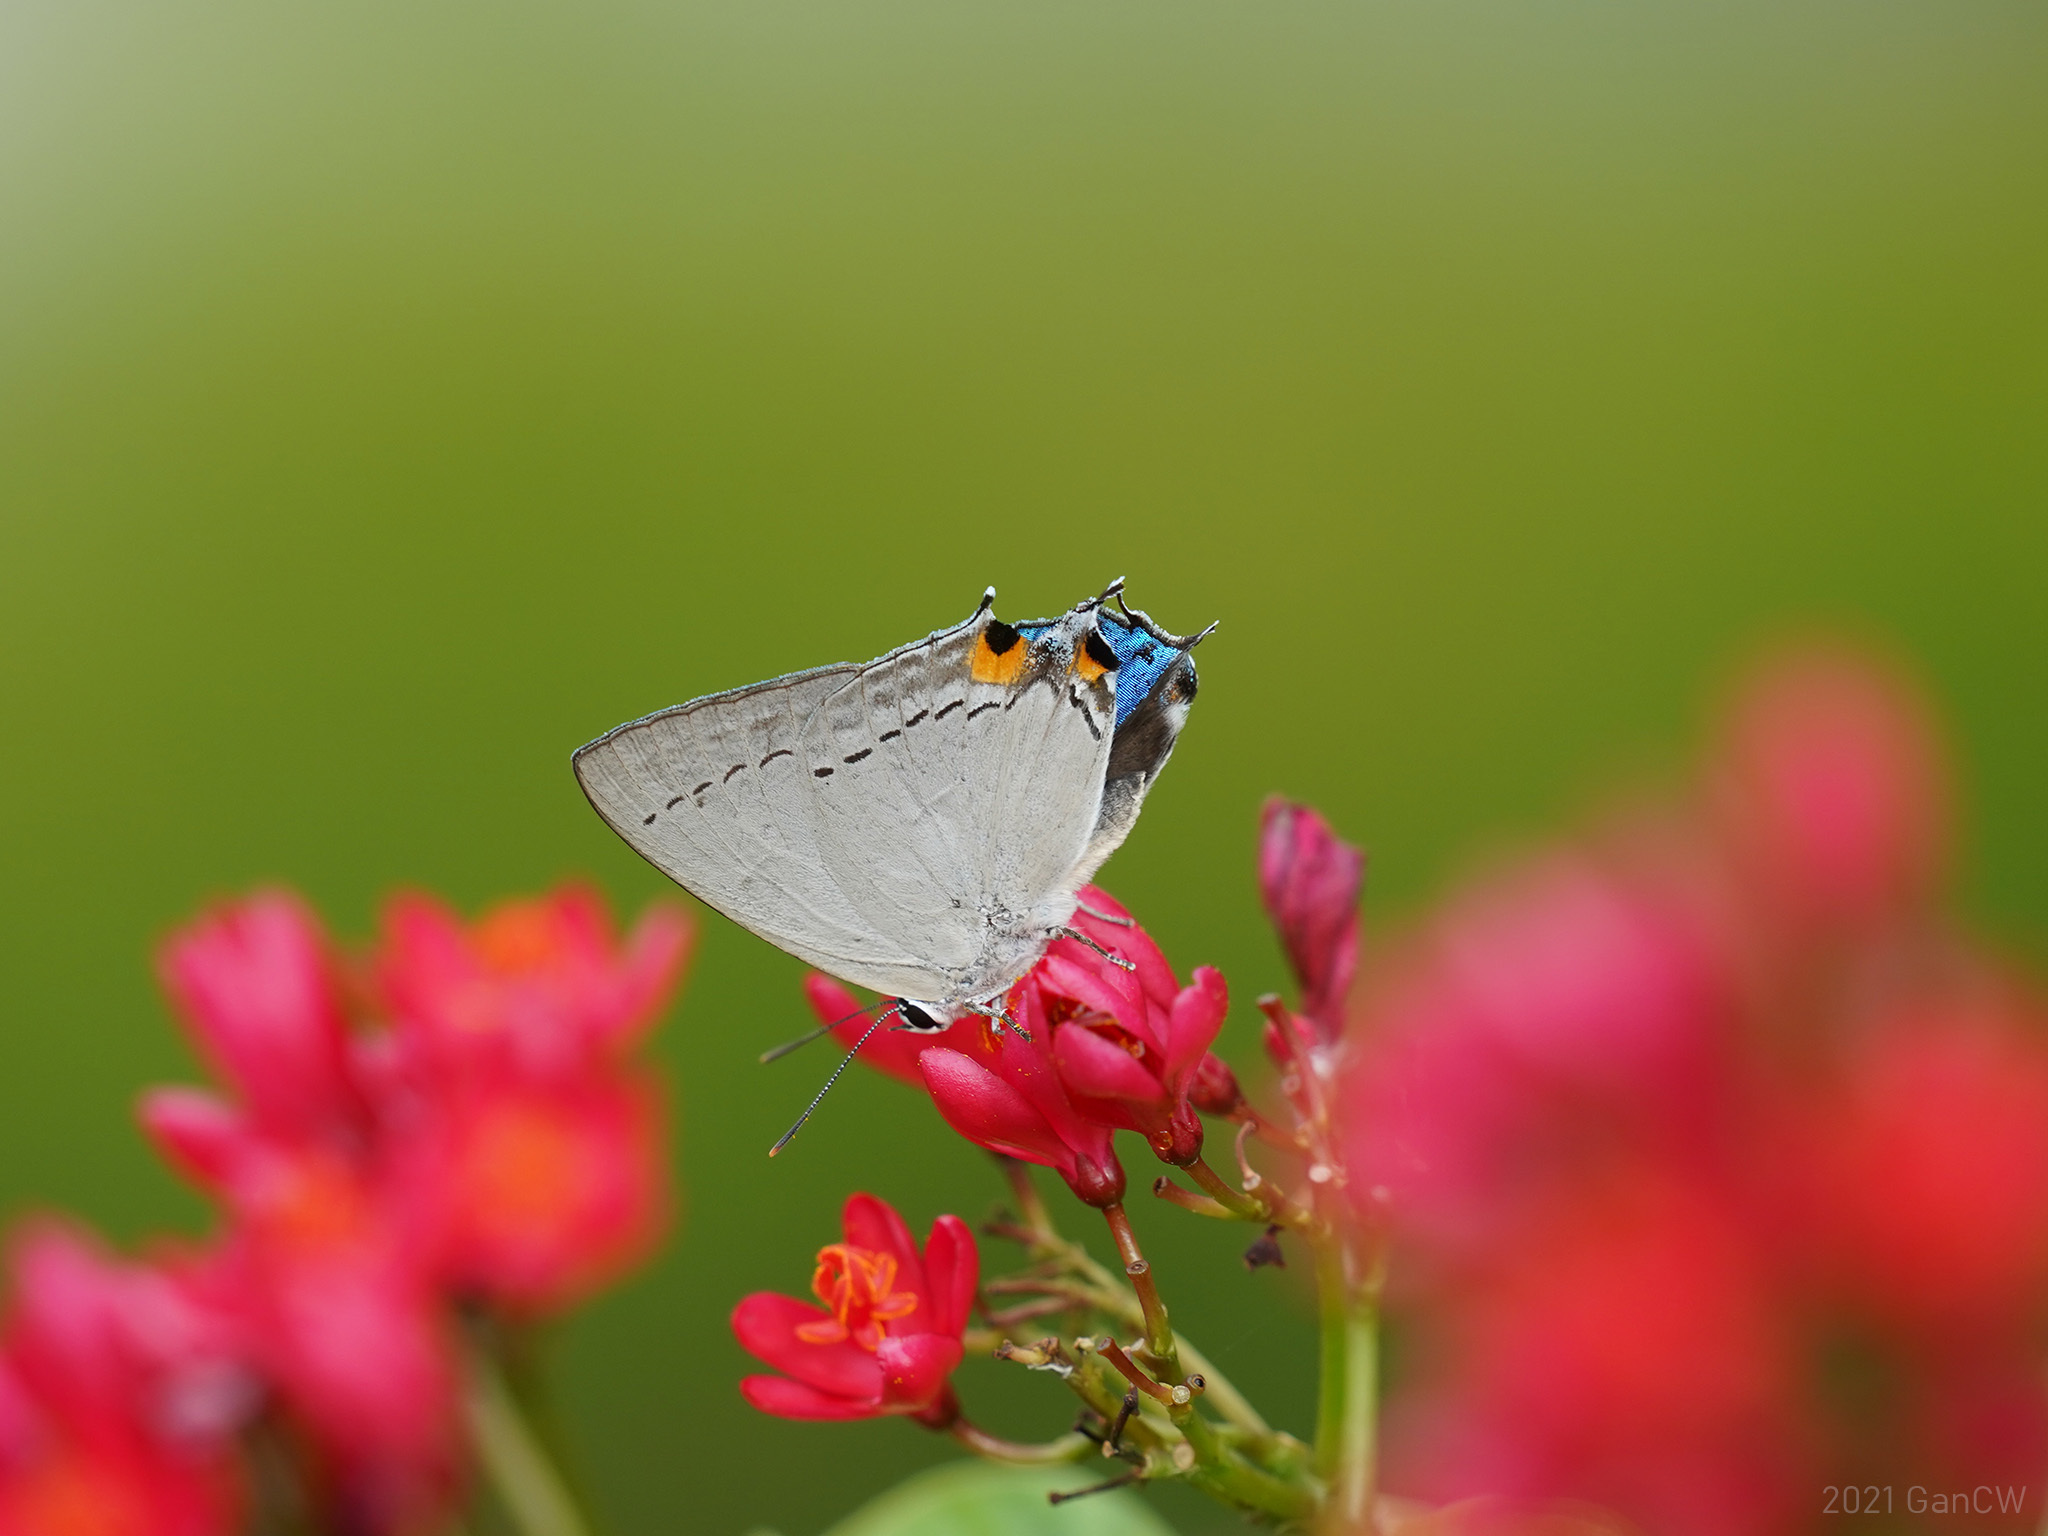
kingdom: Animalia
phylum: Arthropoda
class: Insecta
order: Lepidoptera
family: Lycaenidae
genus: Tajuria
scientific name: Tajuria cippus
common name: Peacock royal
